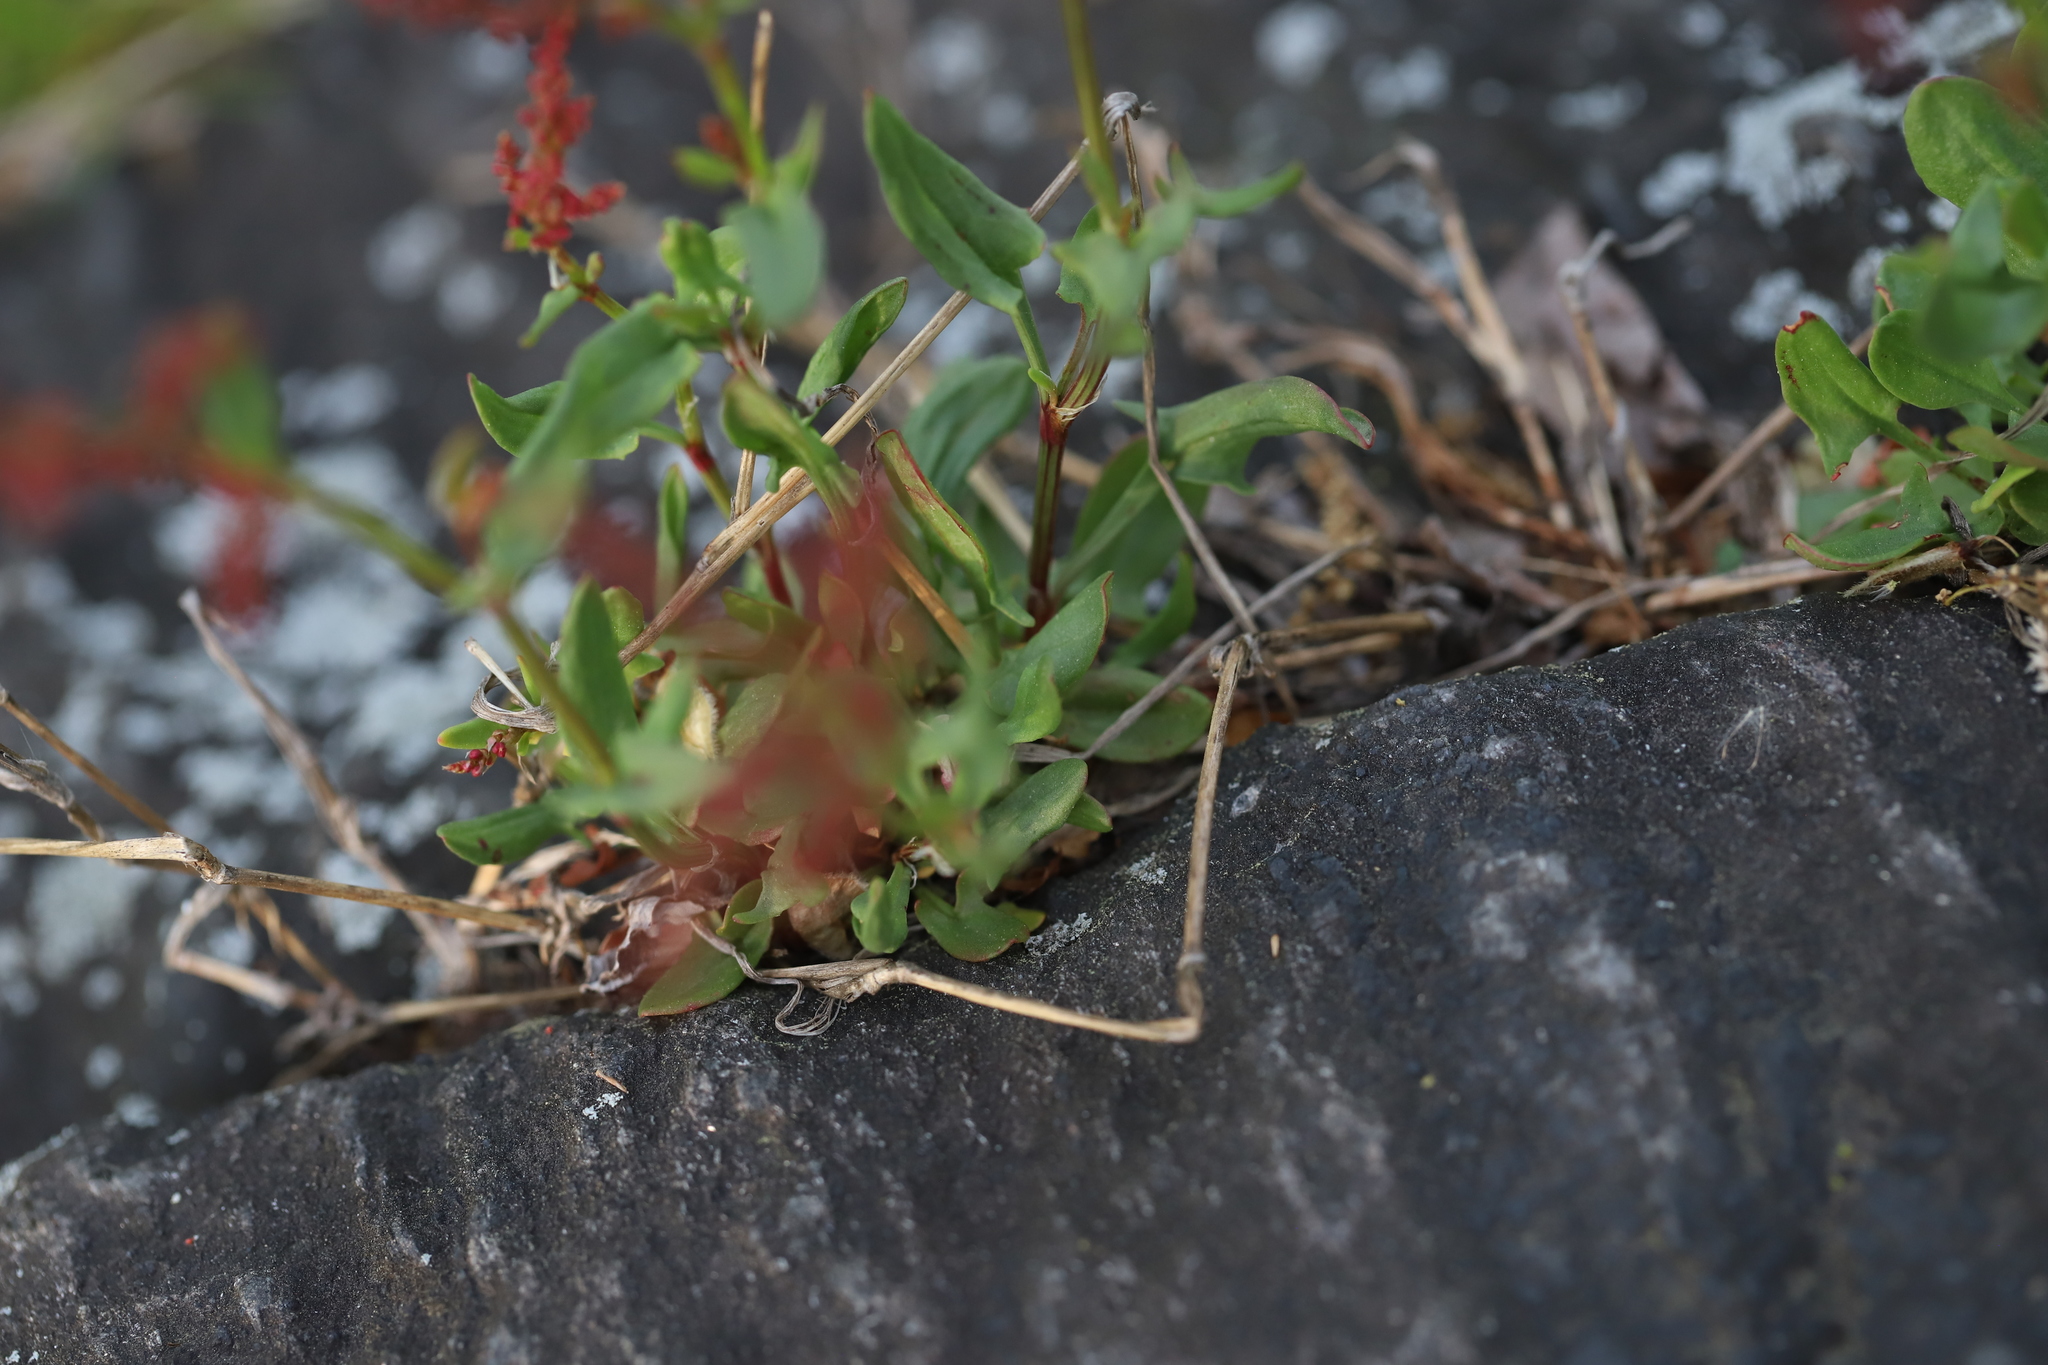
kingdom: Plantae
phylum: Tracheophyta
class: Magnoliopsida
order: Caryophyllales
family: Polygonaceae
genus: Rumex
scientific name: Rumex acetosella
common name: Common sheep sorrel
